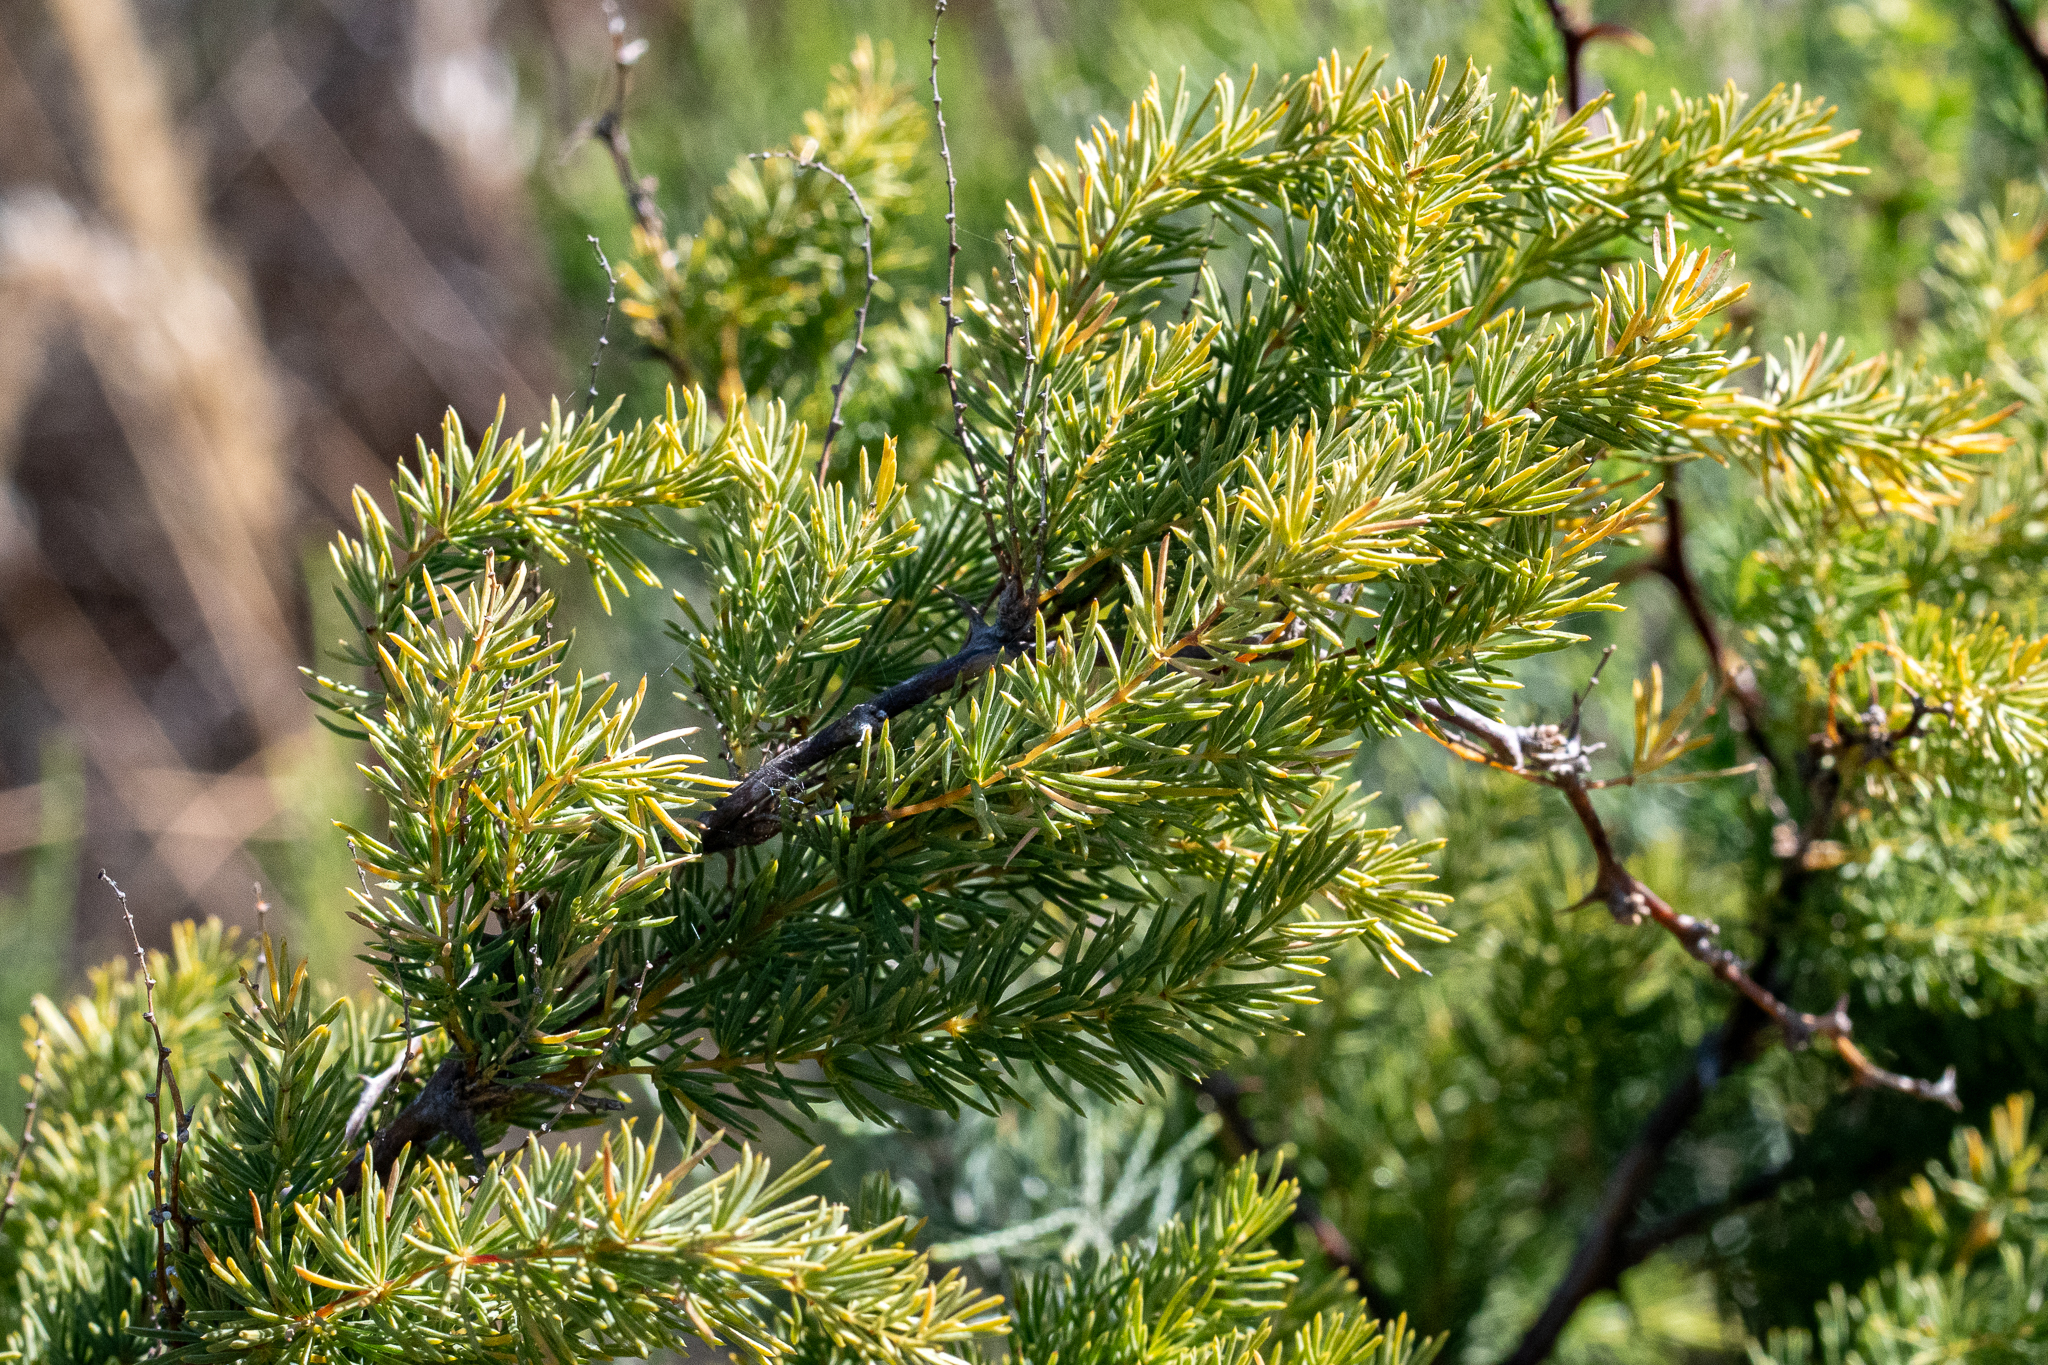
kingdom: Plantae
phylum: Tracheophyta
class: Liliopsida
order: Asparagales
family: Asparagaceae
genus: Asparagus
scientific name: Asparagus rubicundus
